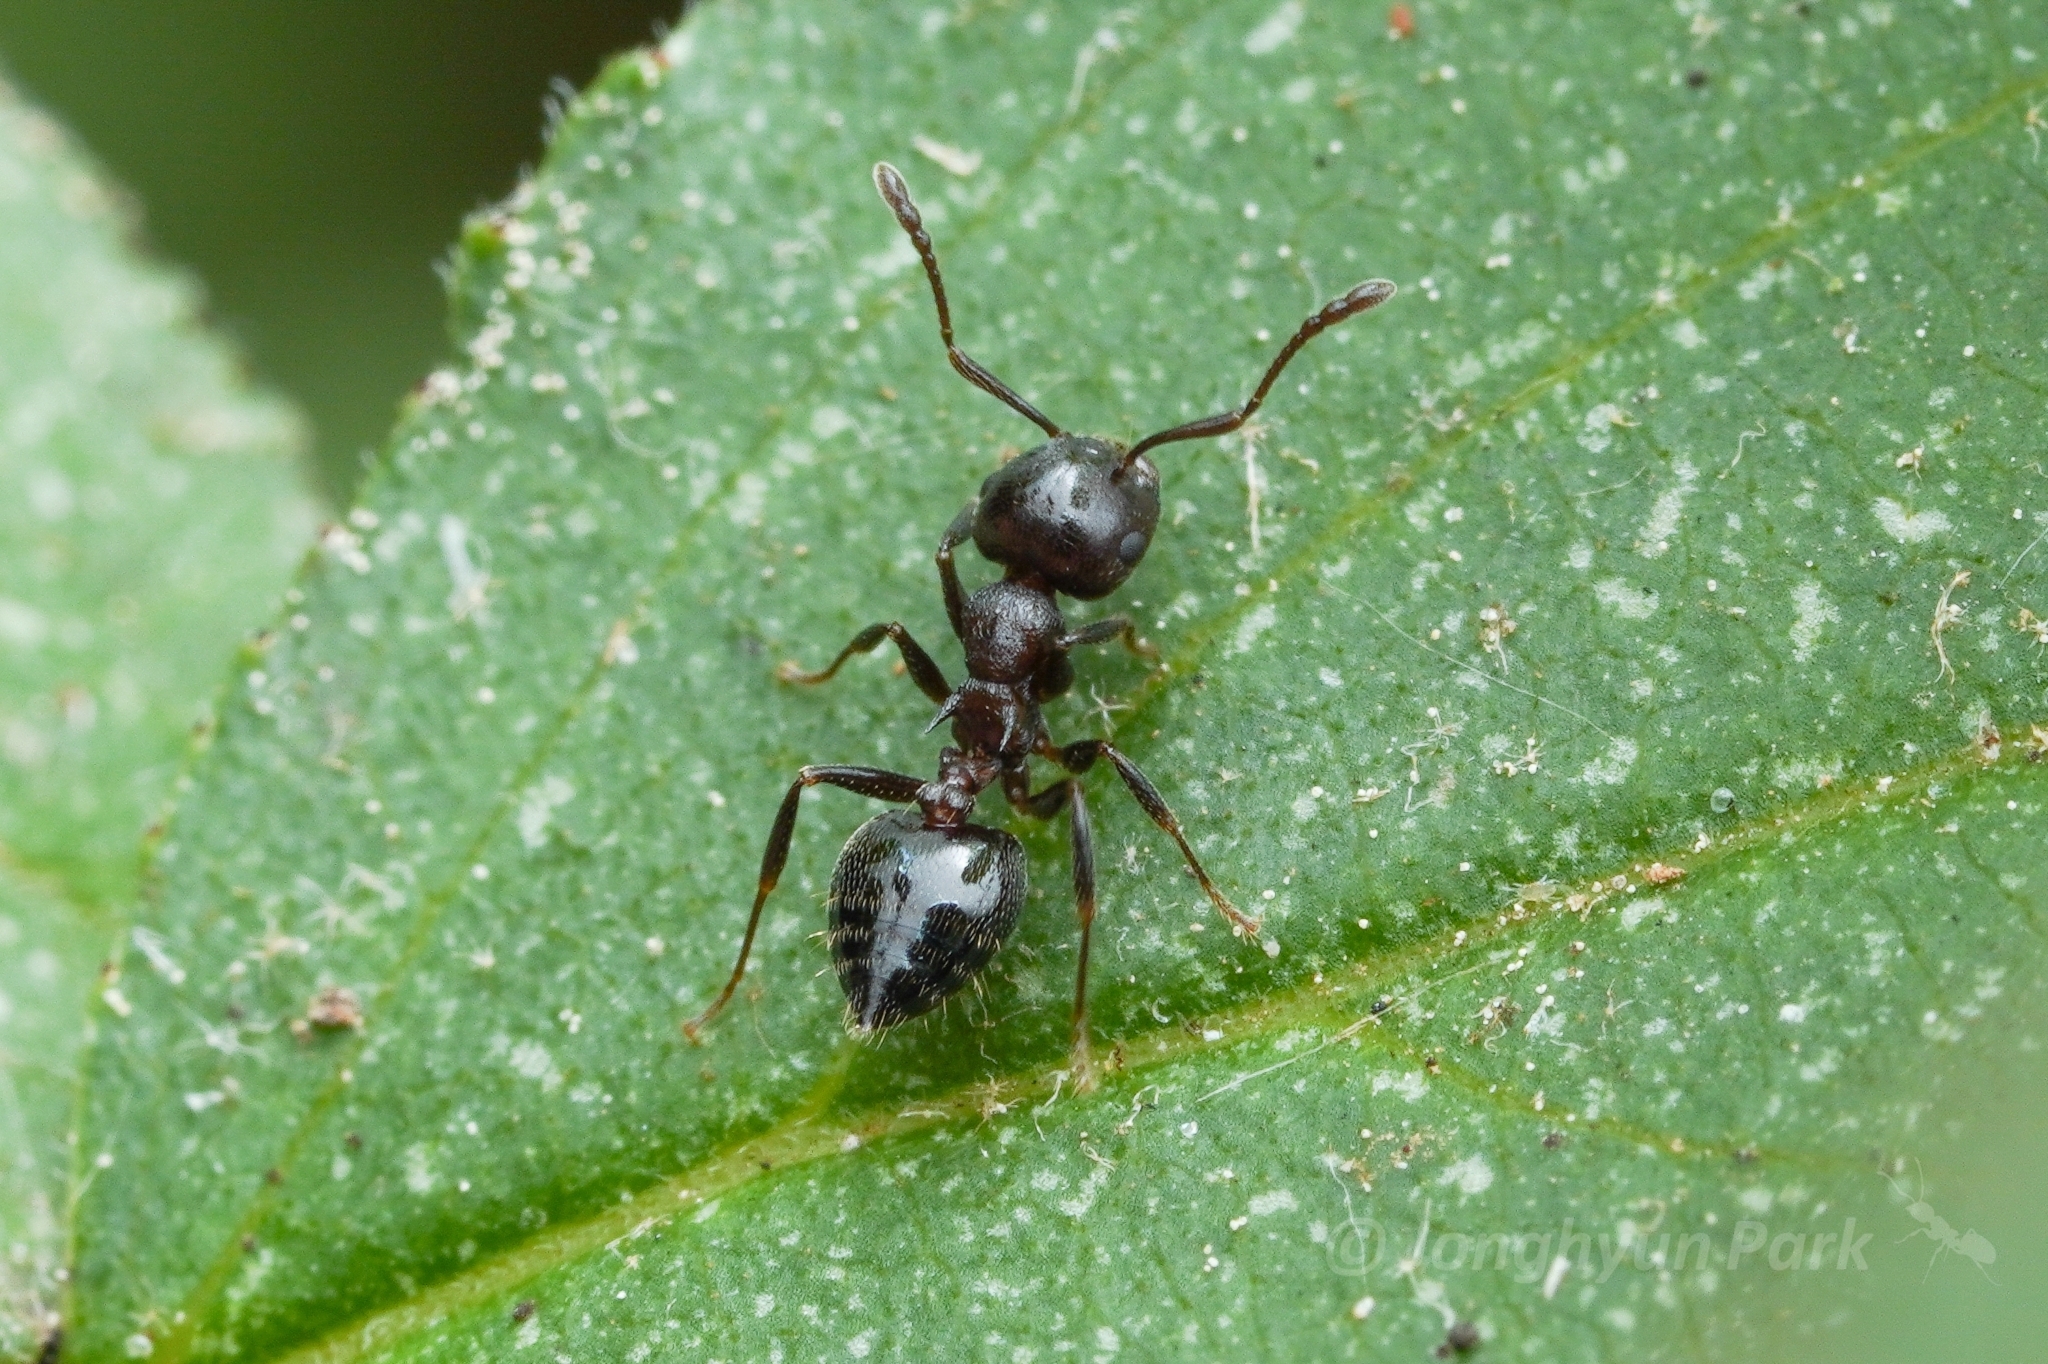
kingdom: Animalia
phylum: Arthropoda
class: Insecta
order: Hymenoptera
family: Formicidae
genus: Crematogaster
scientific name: Crematogaster cerasi
